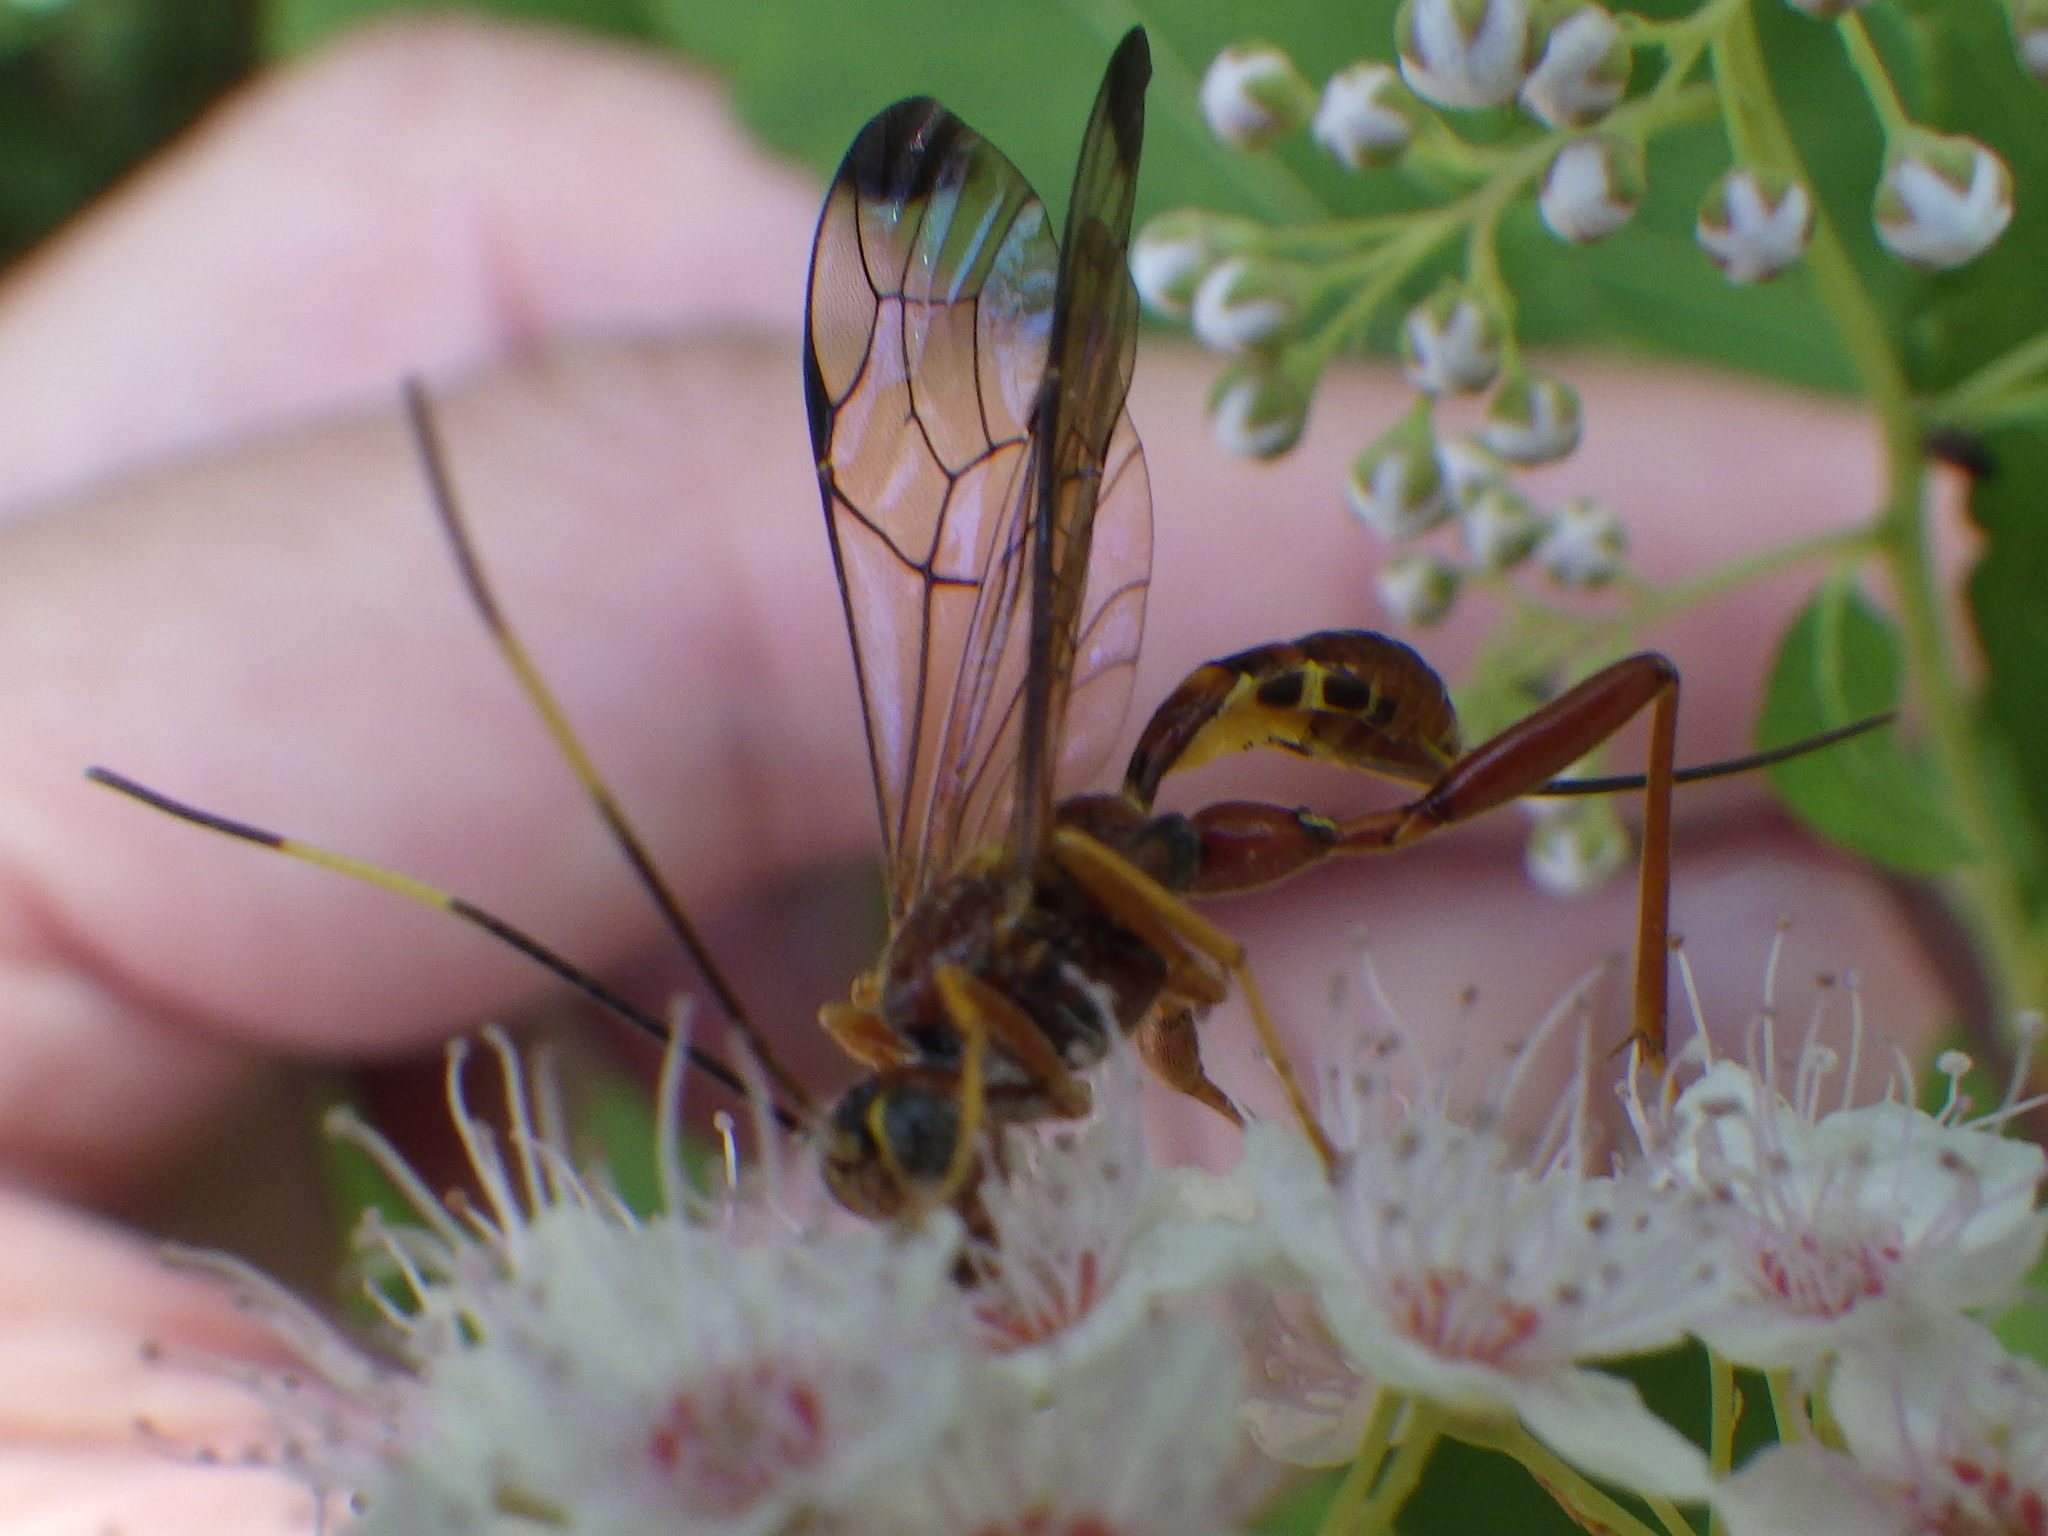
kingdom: Animalia
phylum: Arthropoda
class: Insecta
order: Hymenoptera
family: Ichneumonidae
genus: Spilopteron
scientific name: Spilopteron vicinum
